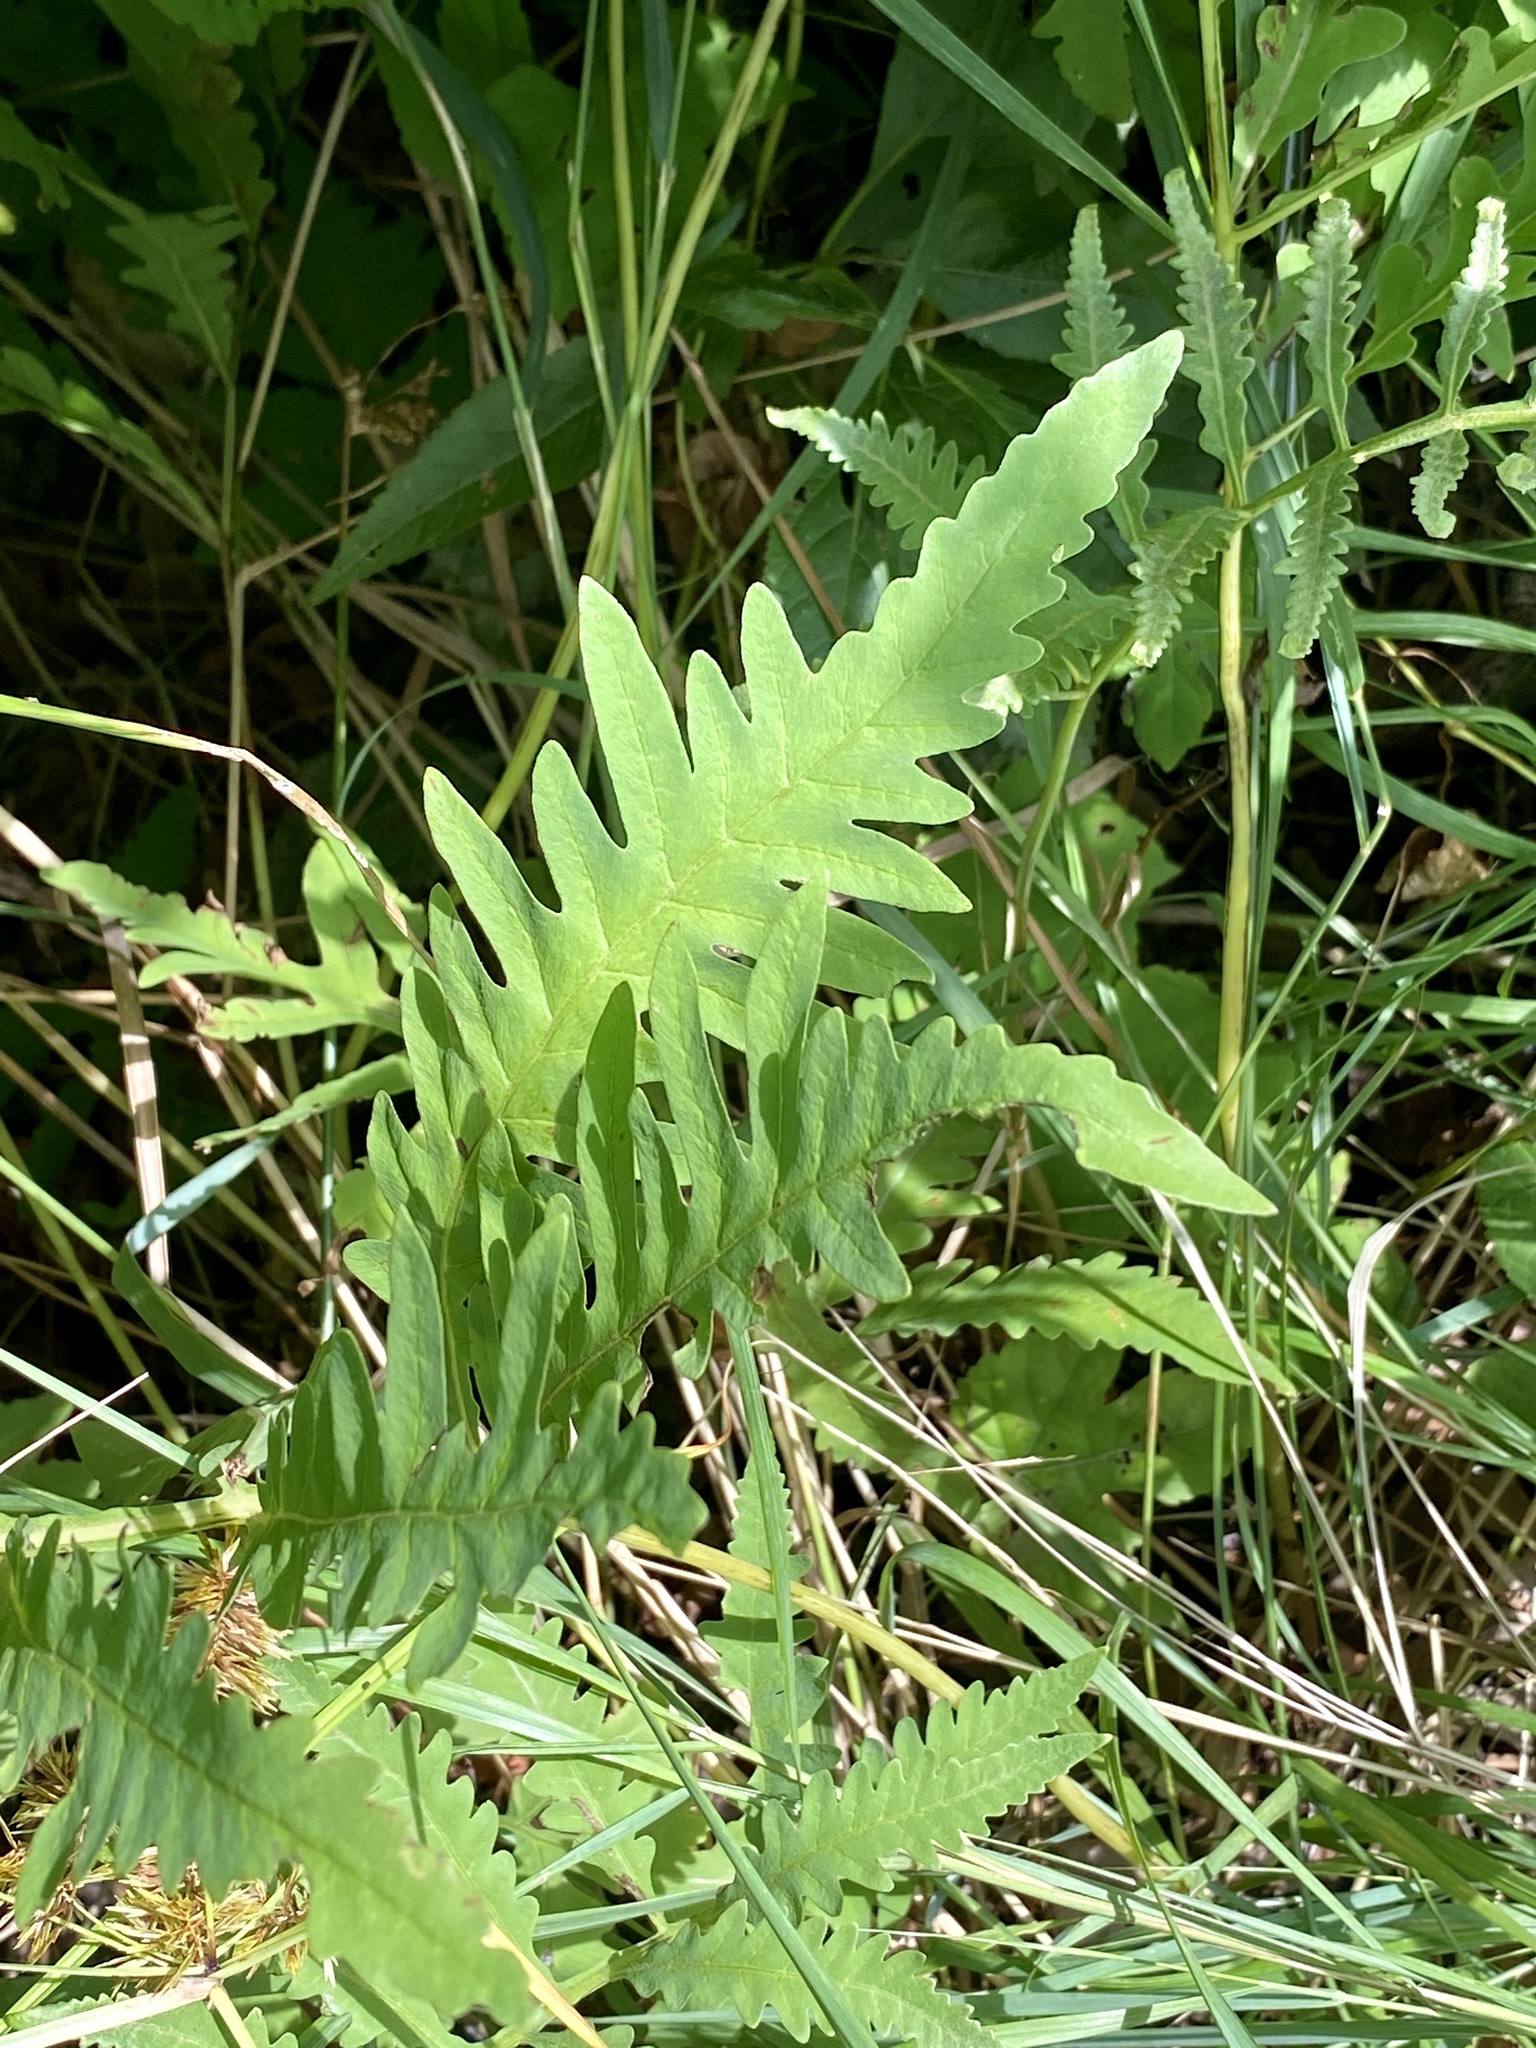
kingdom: Plantae
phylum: Tracheophyta
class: Polypodiopsida
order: Polypodiales
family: Onocleaceae
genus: Onoclea
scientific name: Onoclea sensibilis
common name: Sensitive fern
